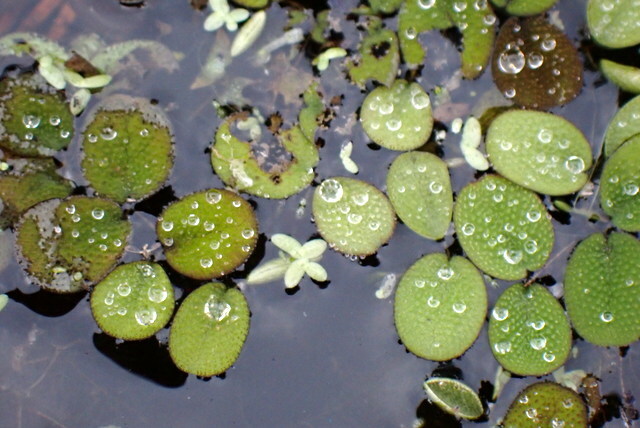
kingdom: Plantae
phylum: Tracheophyta
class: Polypodiopsida
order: Salviniales
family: Salviniaceae
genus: Salvinia
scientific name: Salvinia minima
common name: Water spangles
